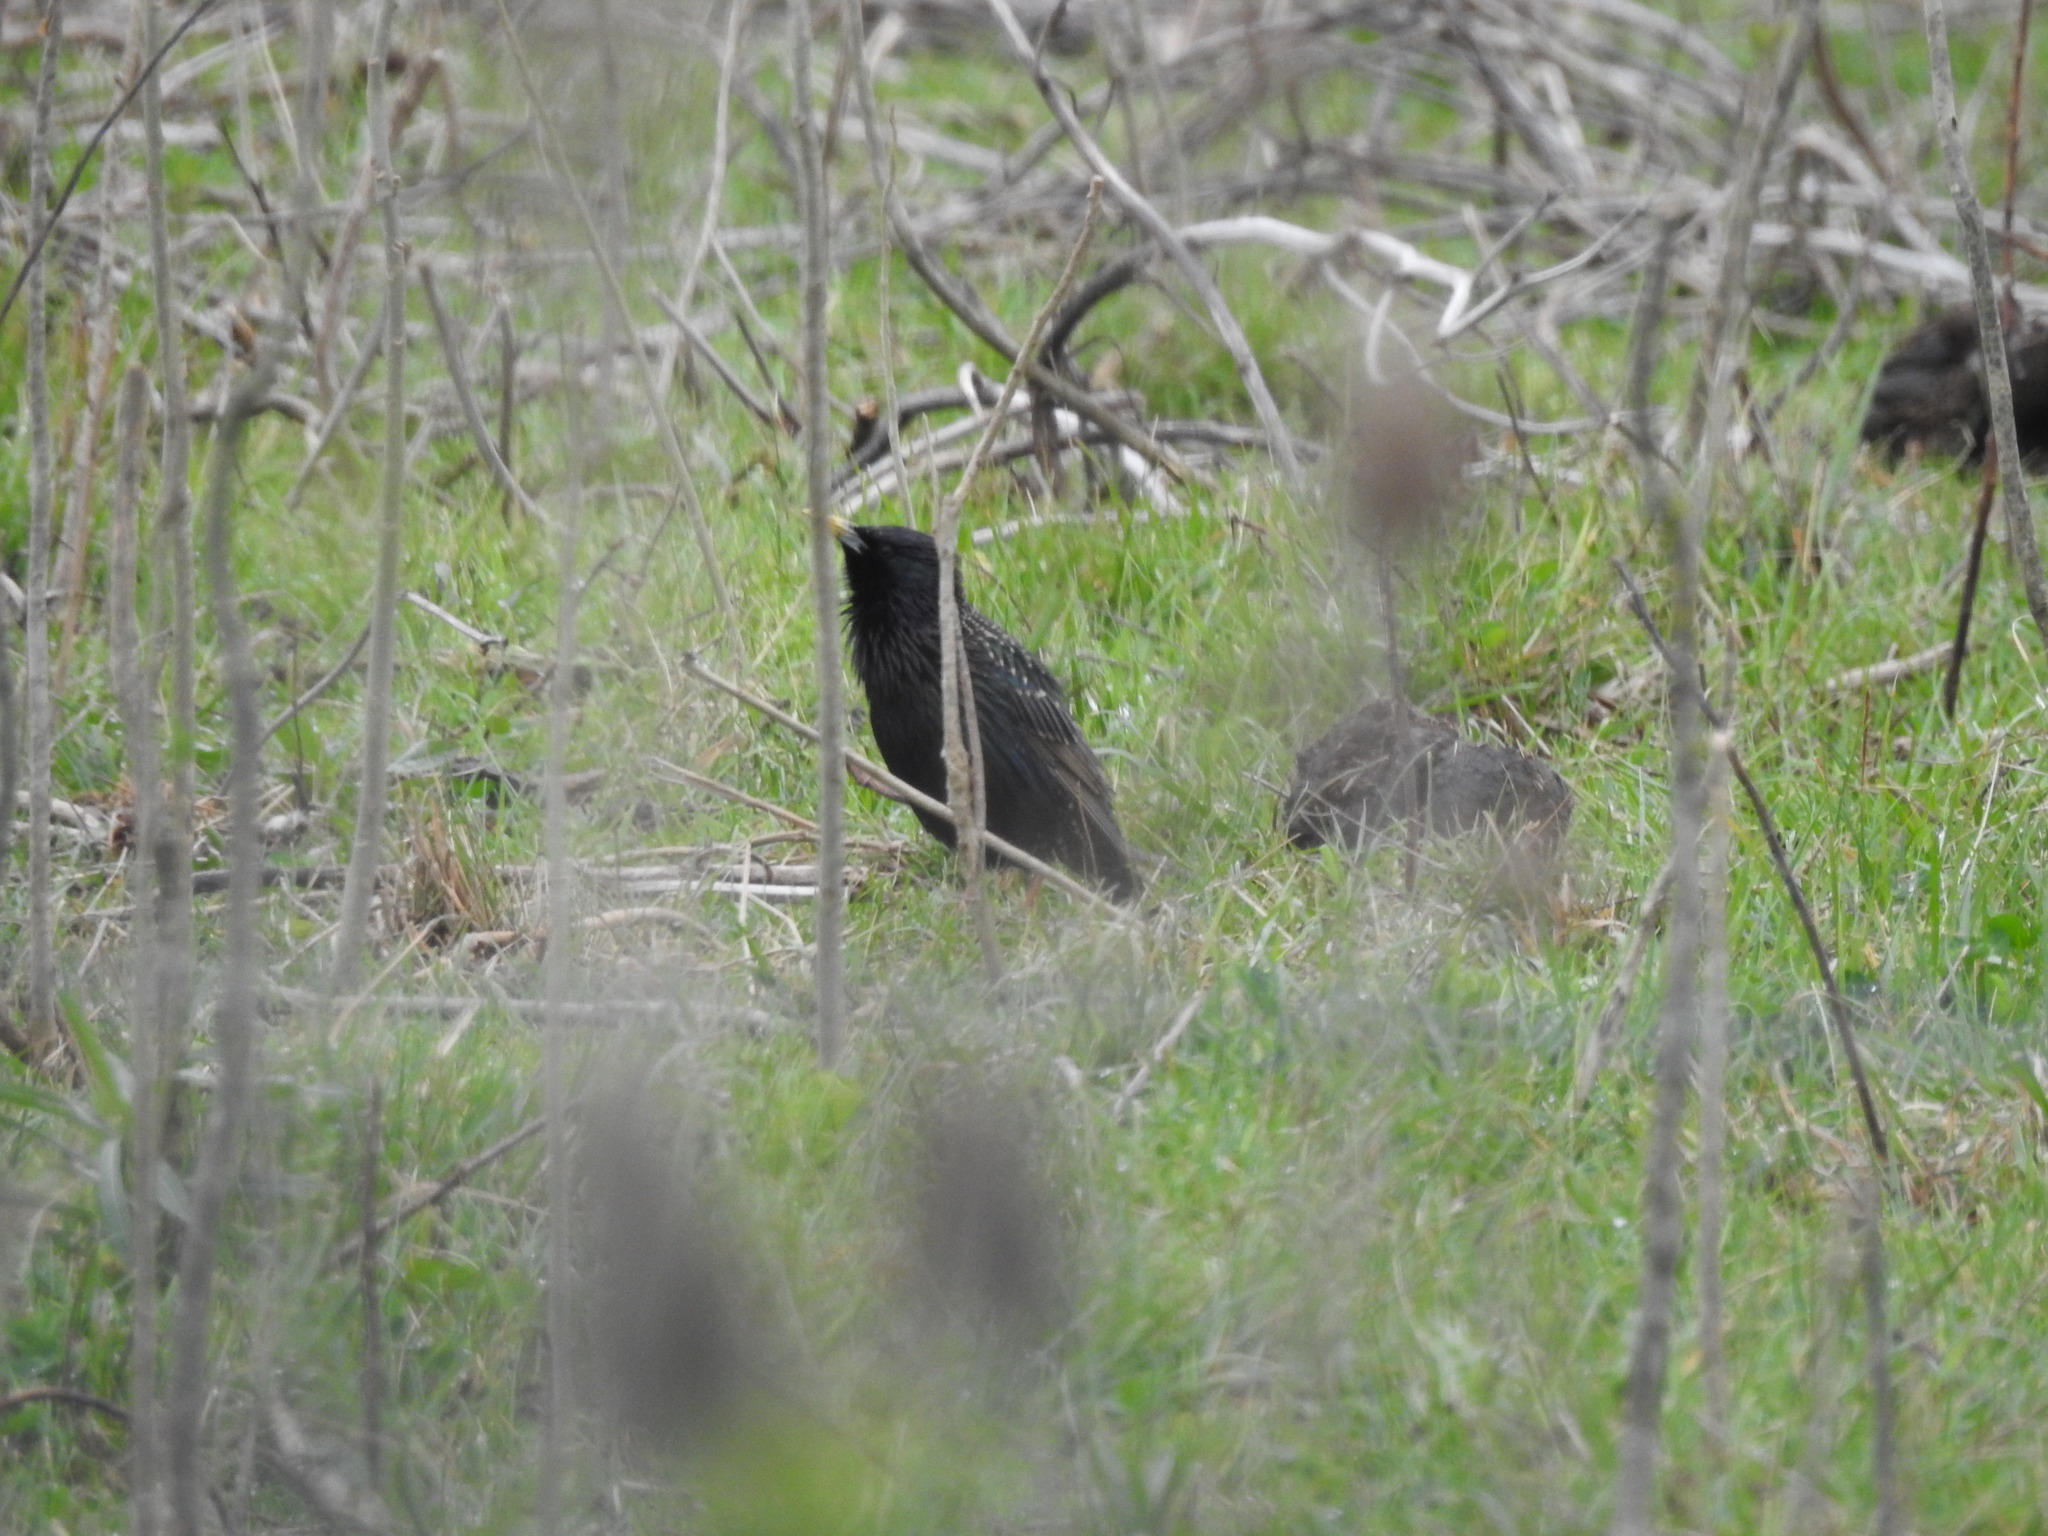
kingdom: Animalia
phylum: Chordata
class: Aves
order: Passeriformes
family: Sturnidae
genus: Sturnus
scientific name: Sturnus vulgaris
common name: Common starling
